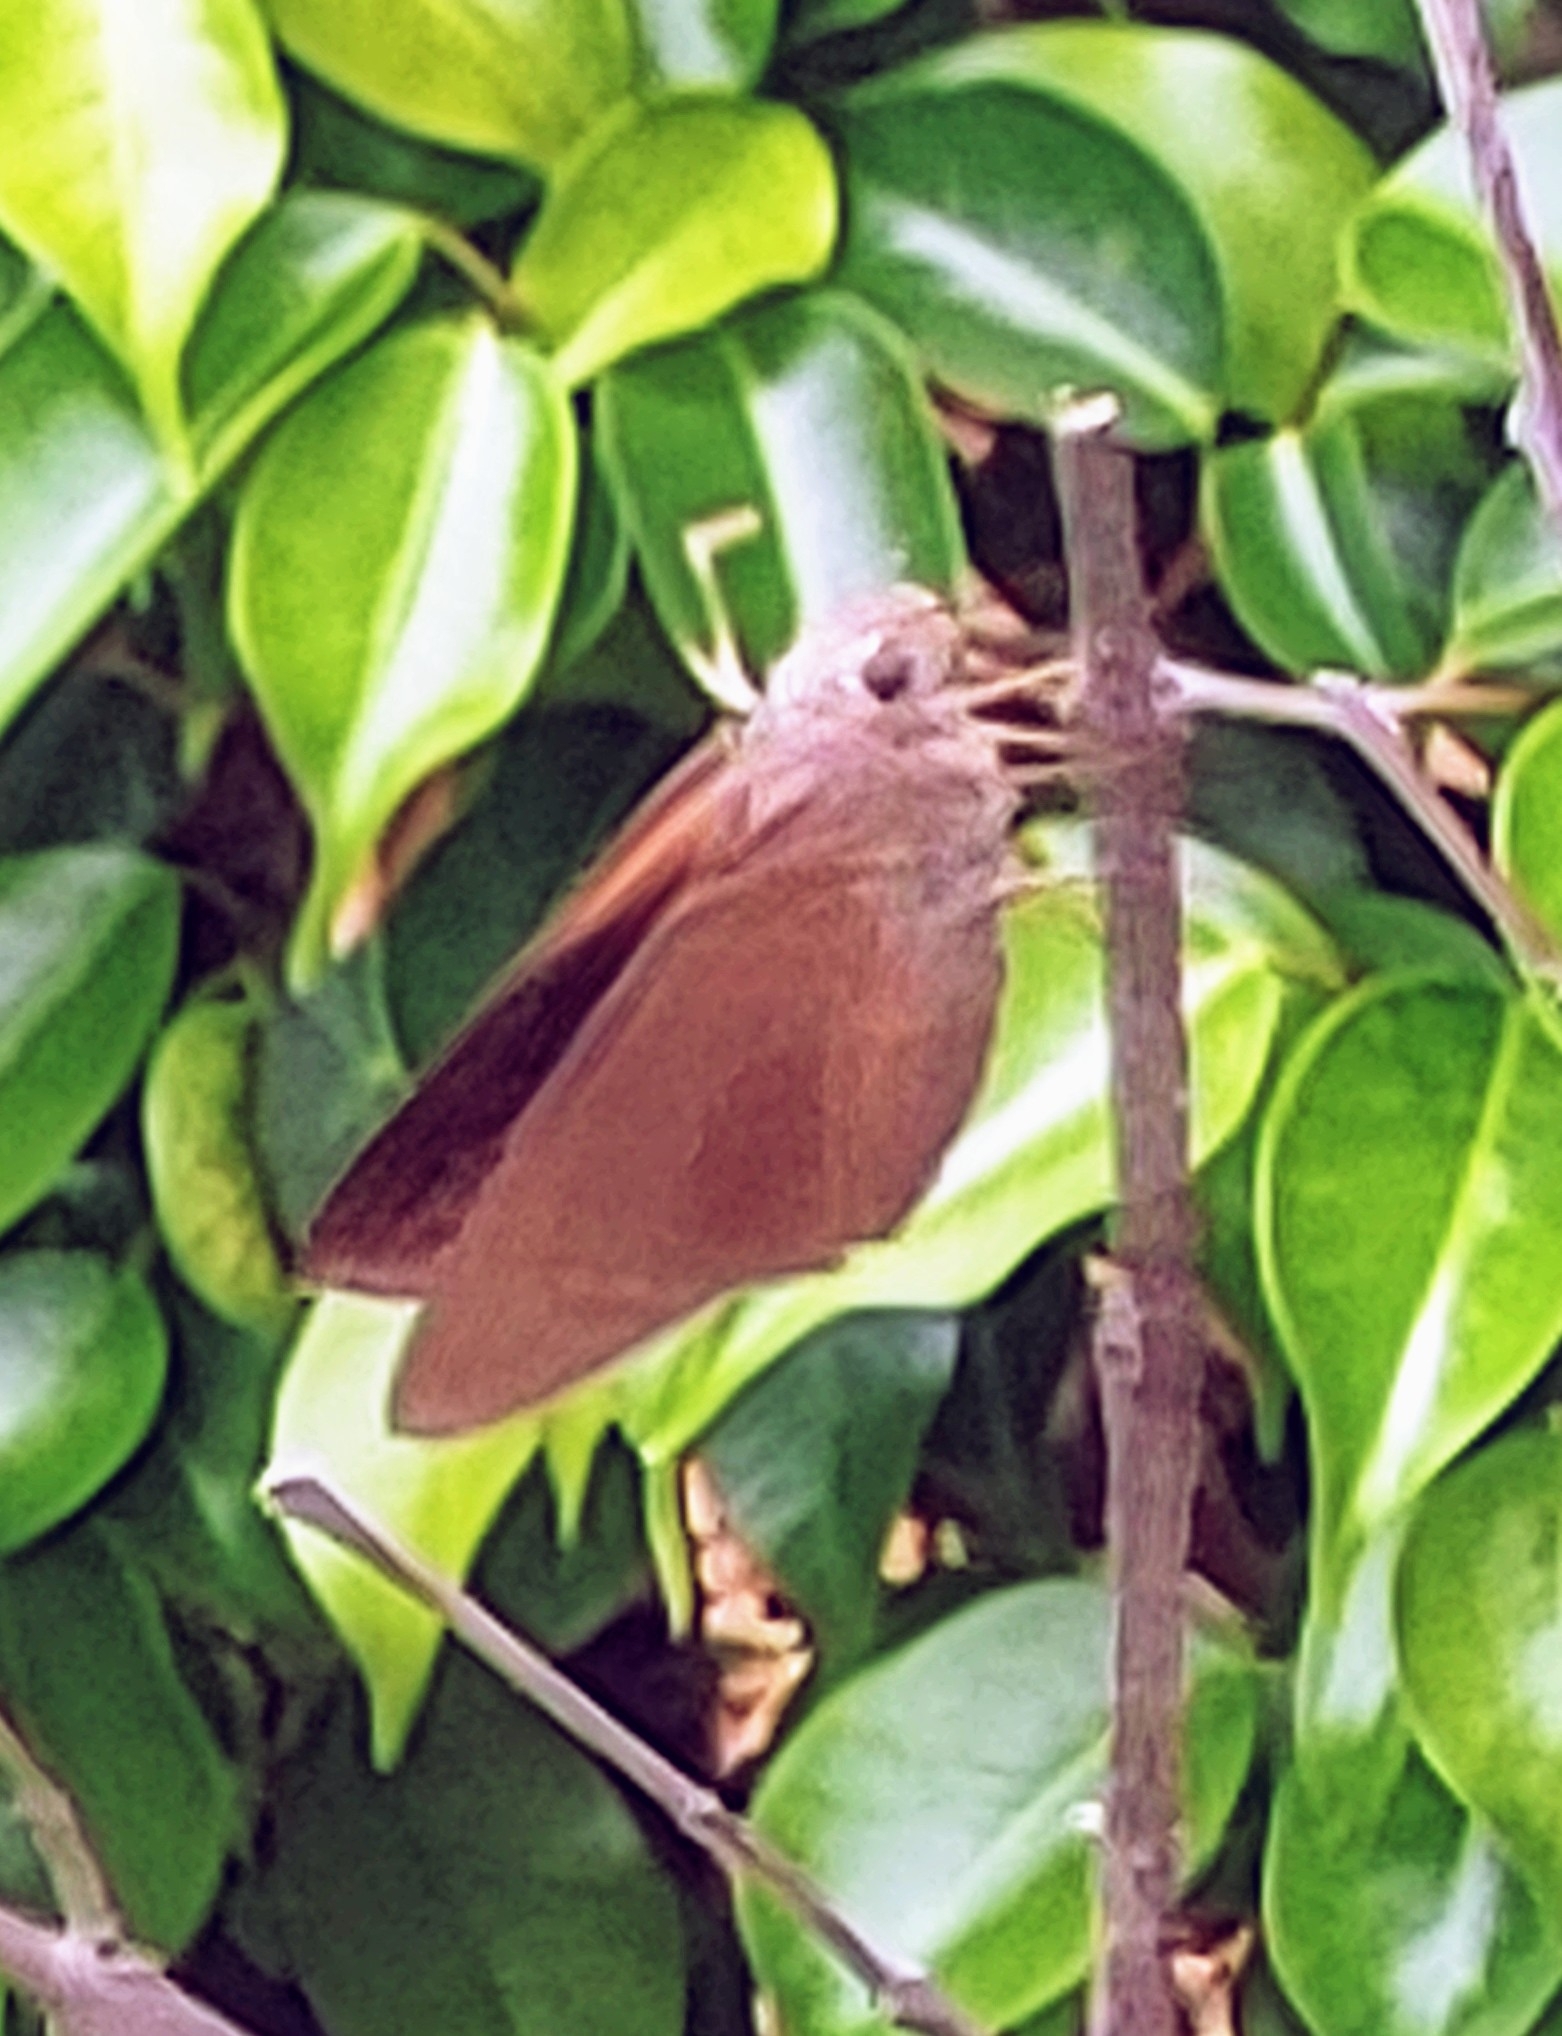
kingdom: Animalia
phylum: Arthropoda
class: Insecta
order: Lepidoptera
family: Hesperiidae
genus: Asbolis
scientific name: Asbolis capucinus
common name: Monk skipper
